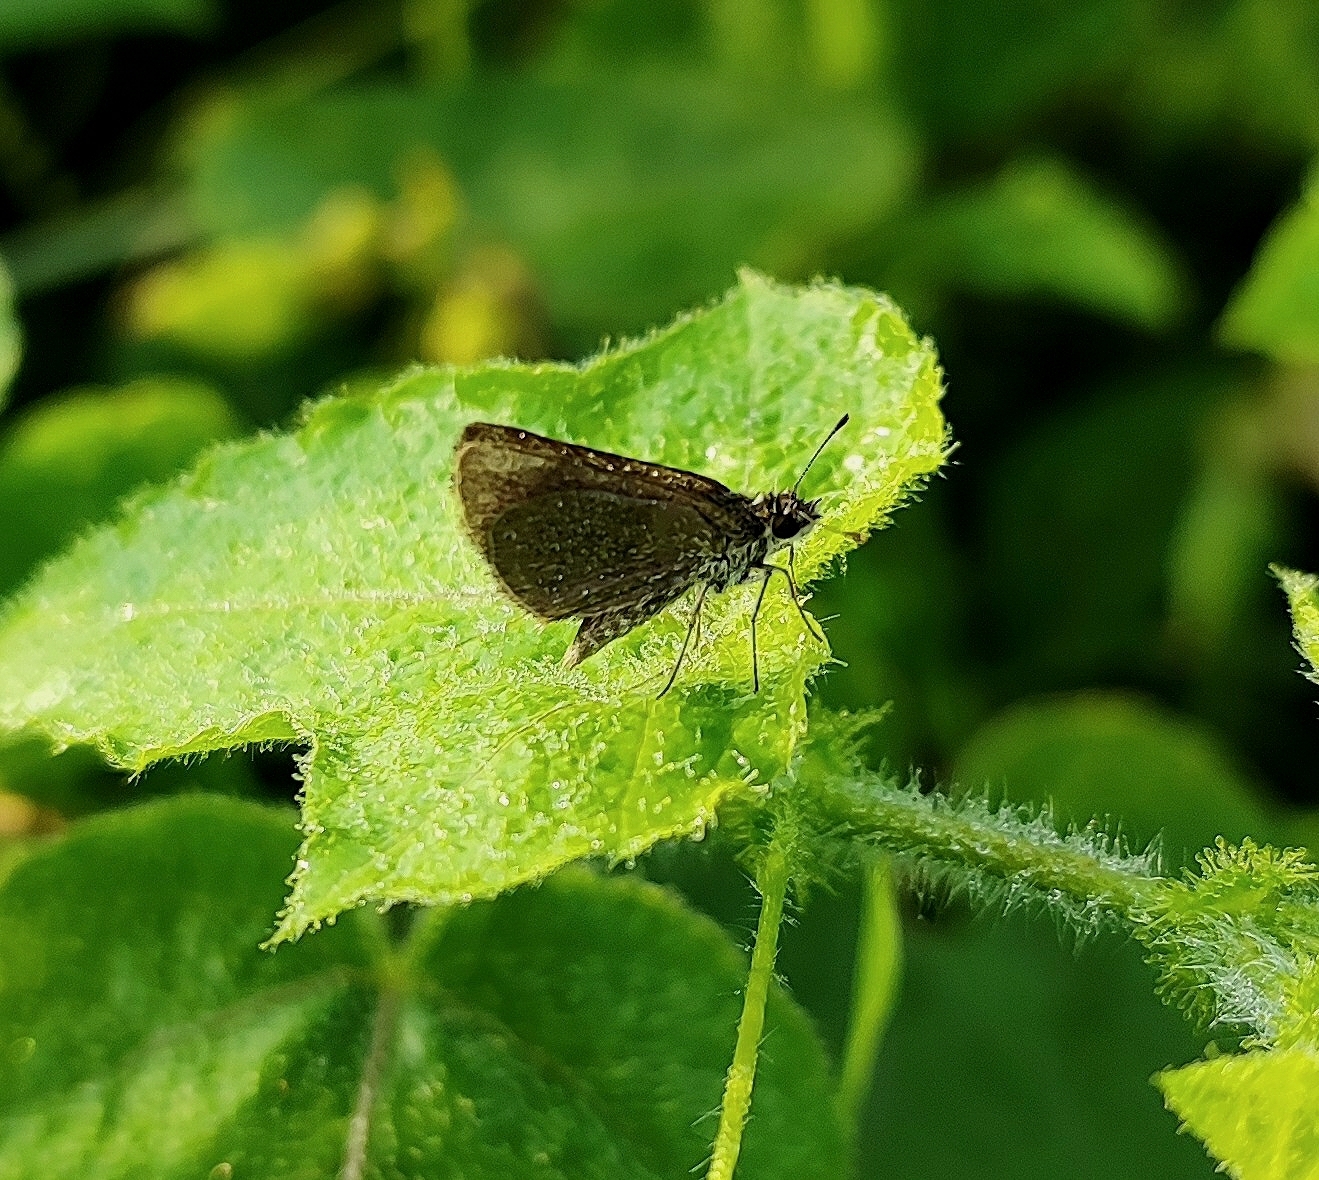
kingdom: Animalia
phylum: Arthropoda
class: Insecta
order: Lepidoptera
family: Hesperiidae
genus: Aeromachus
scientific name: Aeromachus pygmaeus
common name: Pygmy scrub hopper
